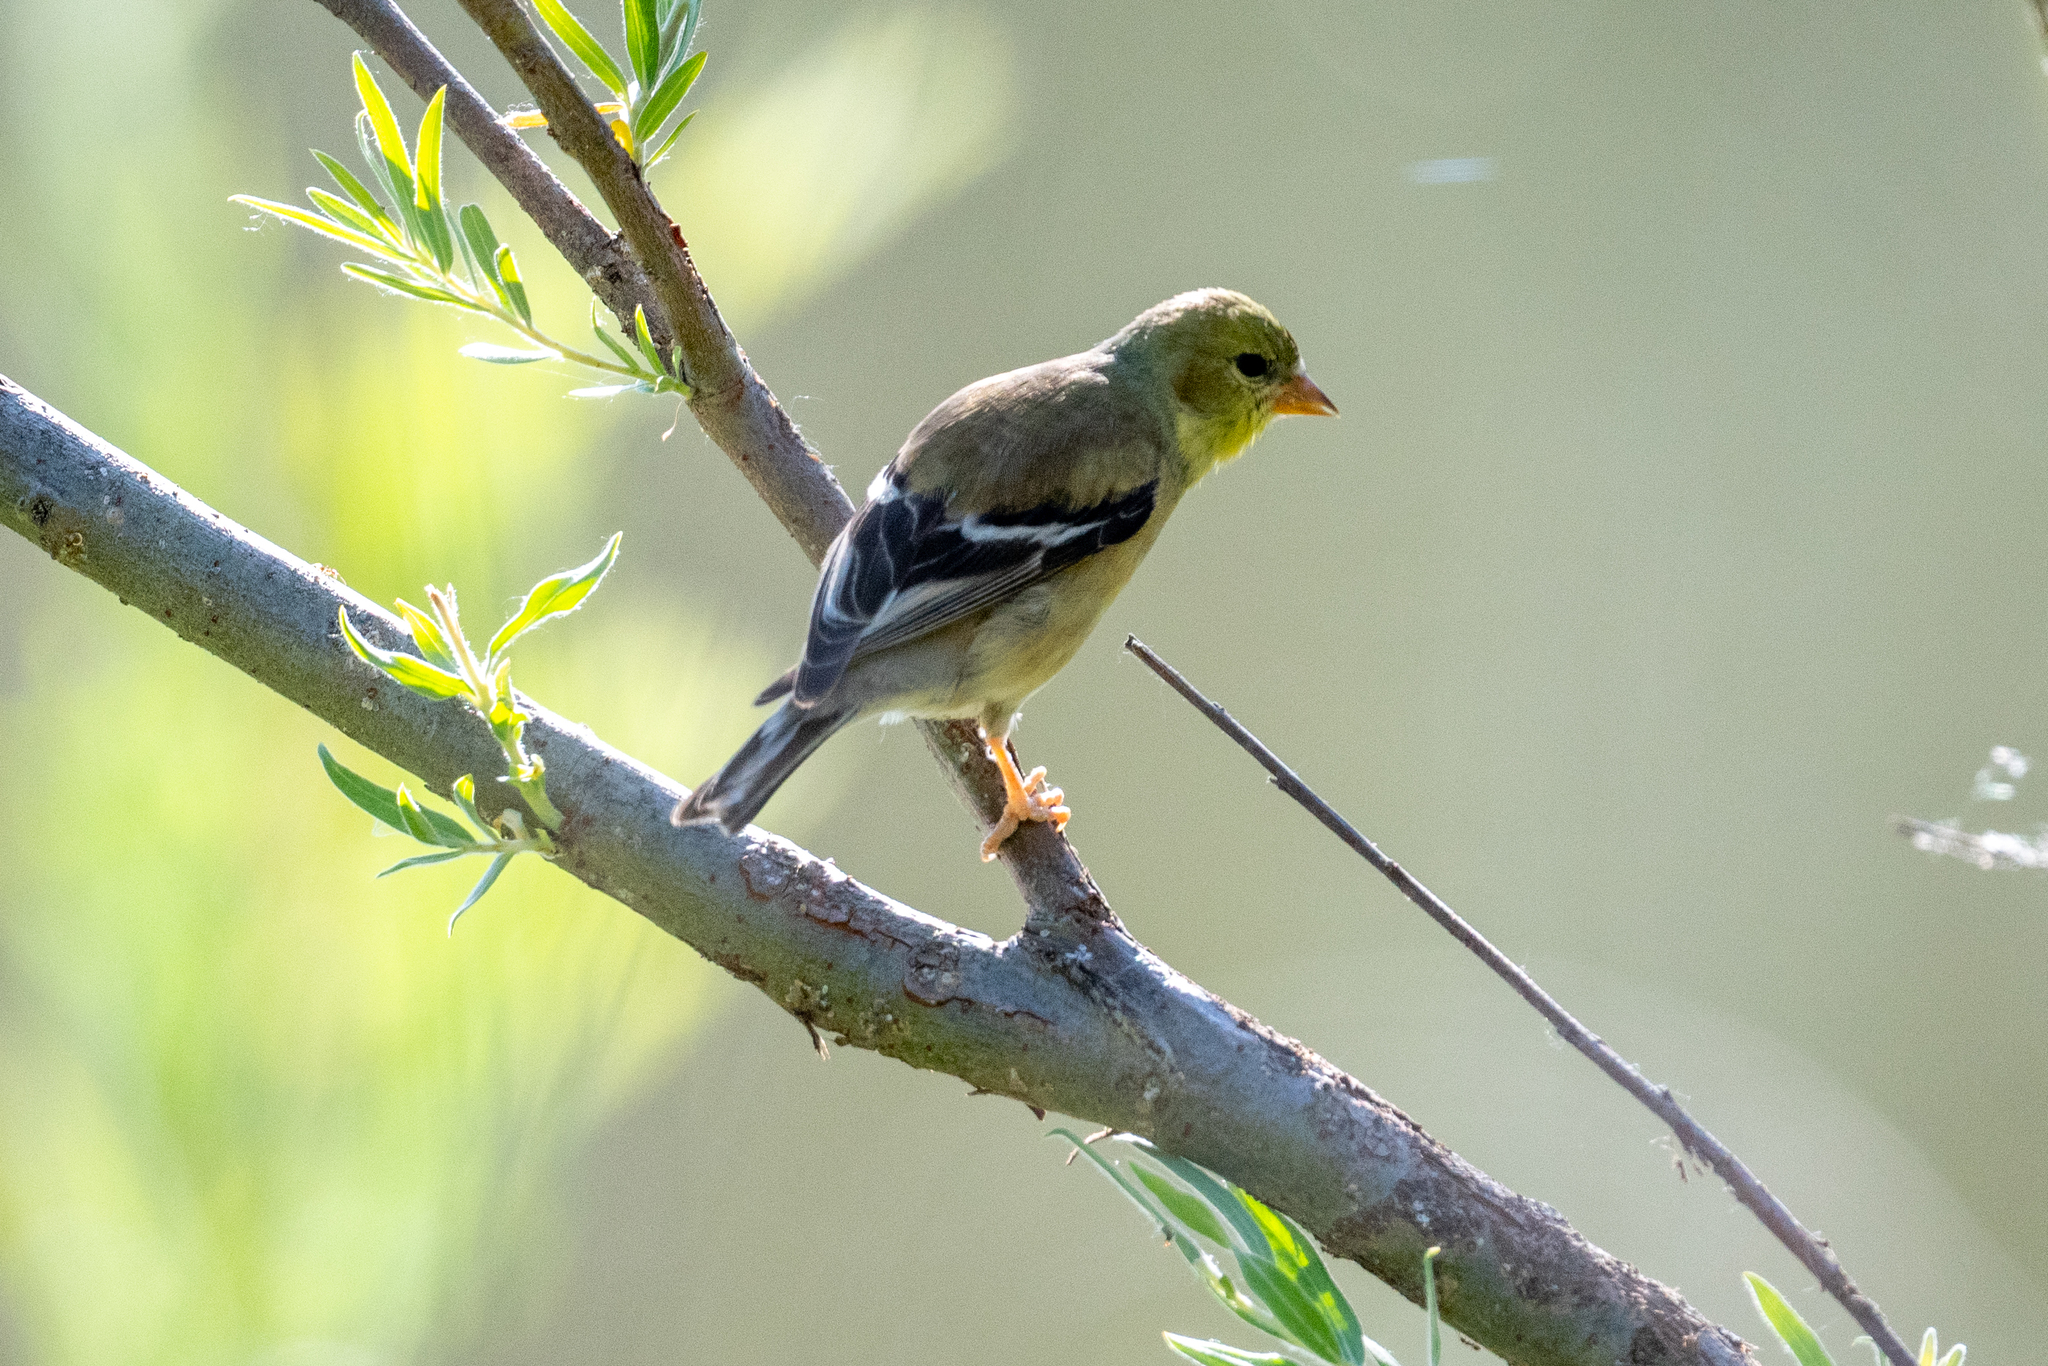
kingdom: Animalia
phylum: Chordata
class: Aves
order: Passeriformes
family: Fringillidae
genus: Spinus
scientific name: Spinus tristis
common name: American goldfinch
